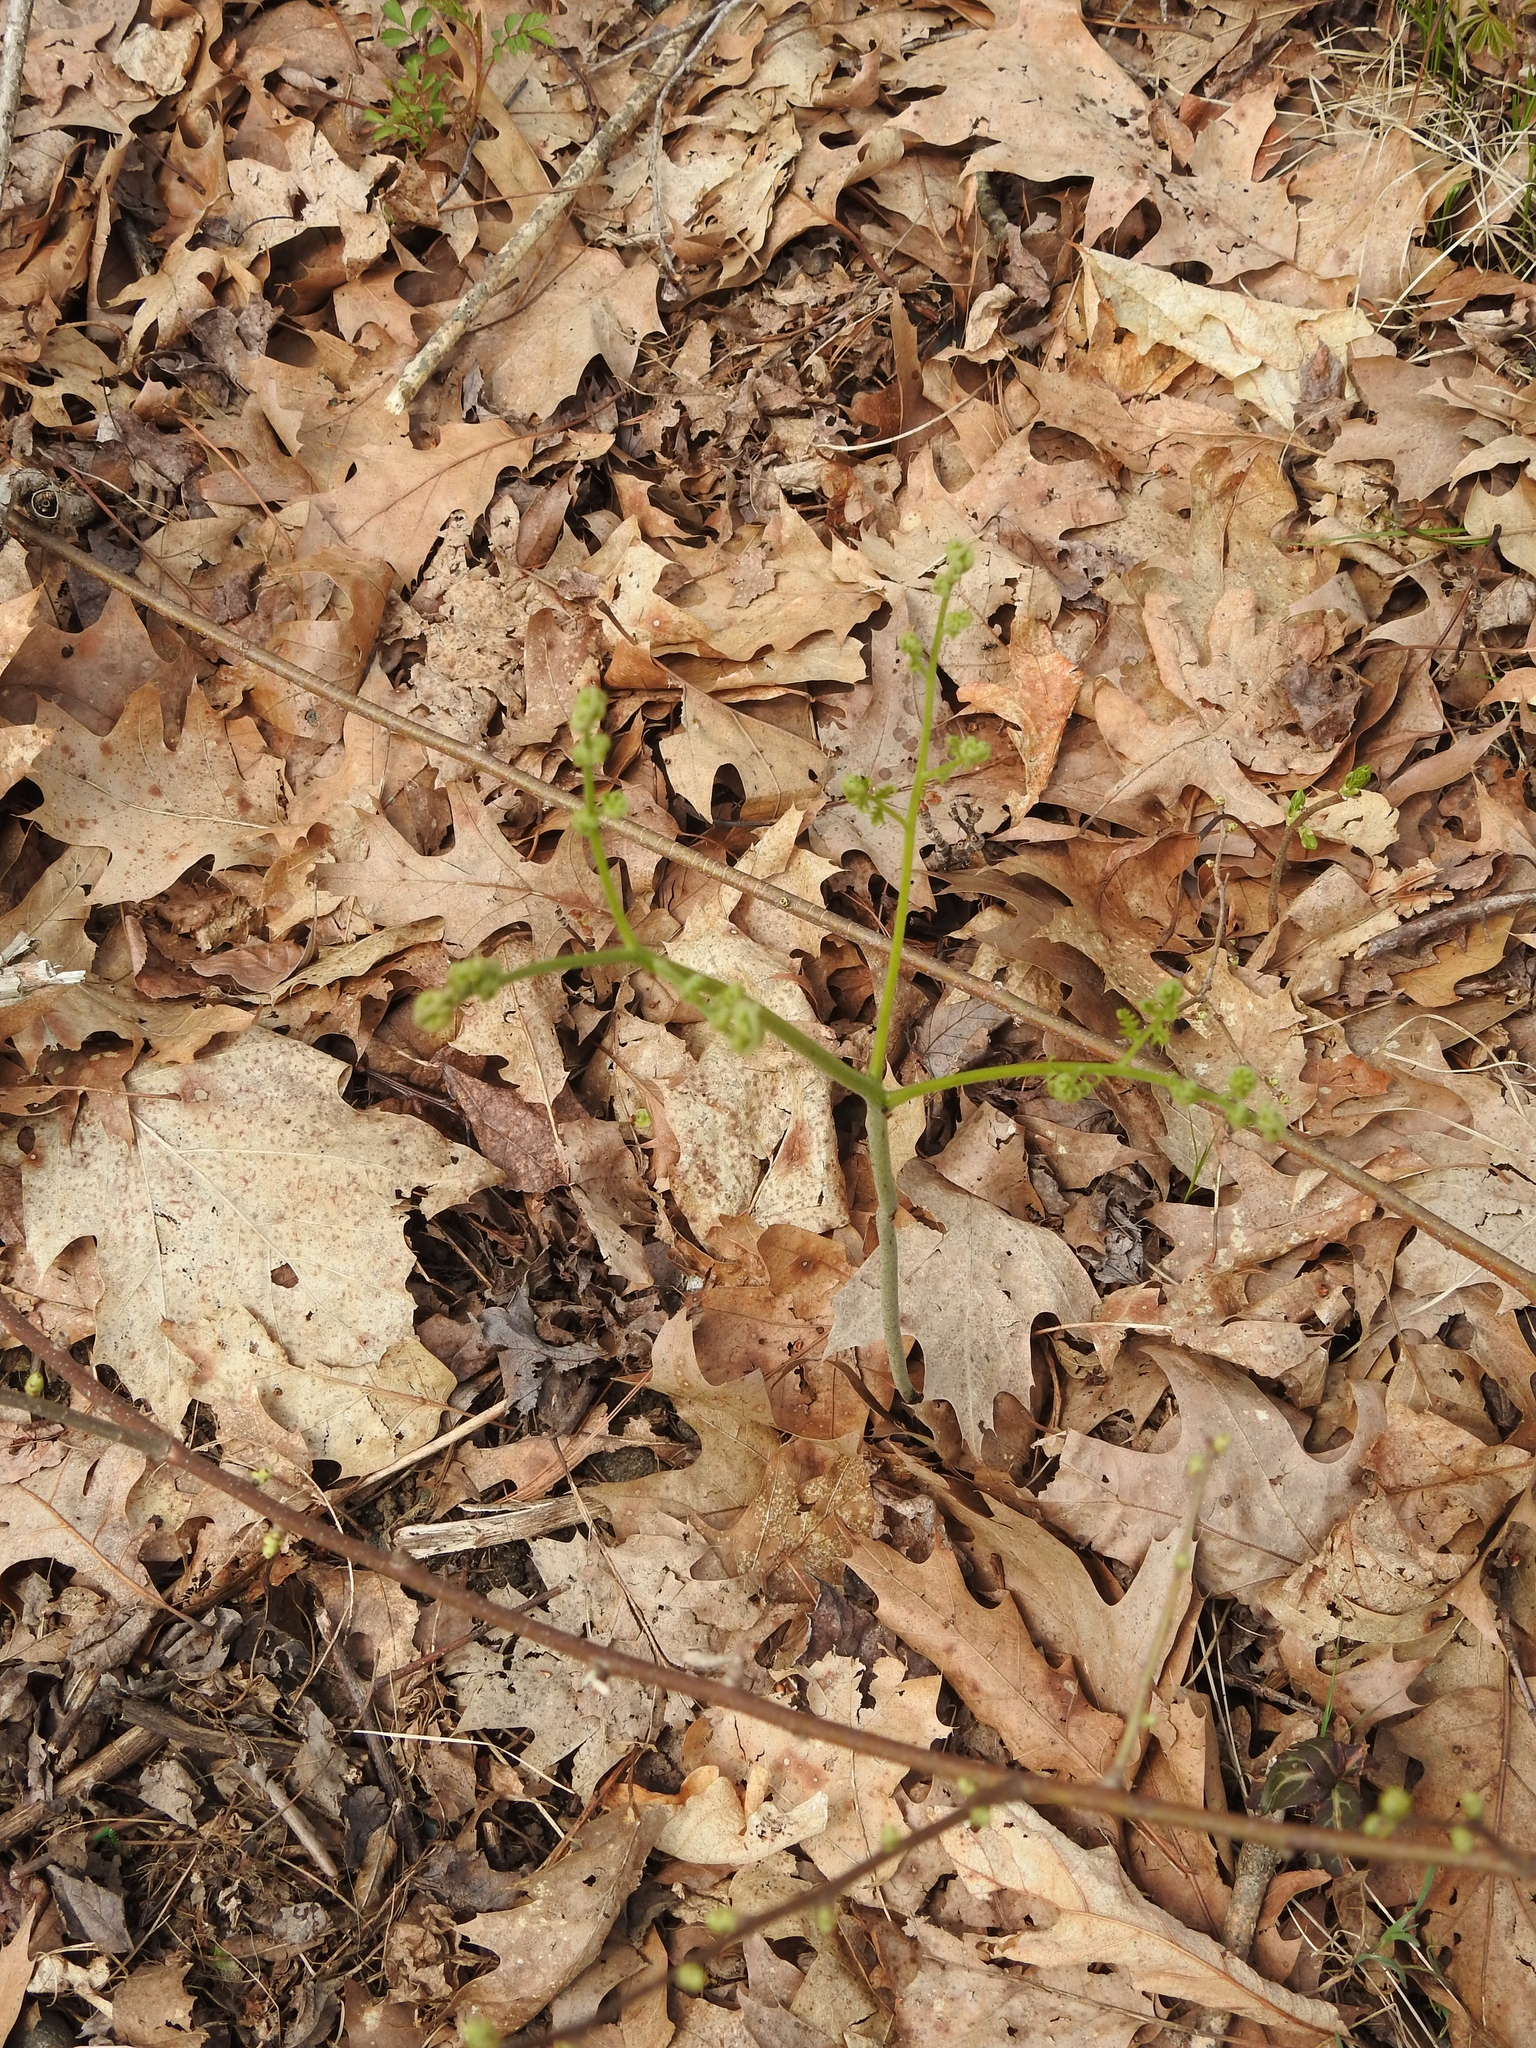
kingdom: Plantae
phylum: Tracheophyta
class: Polypodiopsida
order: Polypodiales
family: Dennstaedtiaceae
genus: Pteridium
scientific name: Pteridium aquilinum
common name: Bracken
